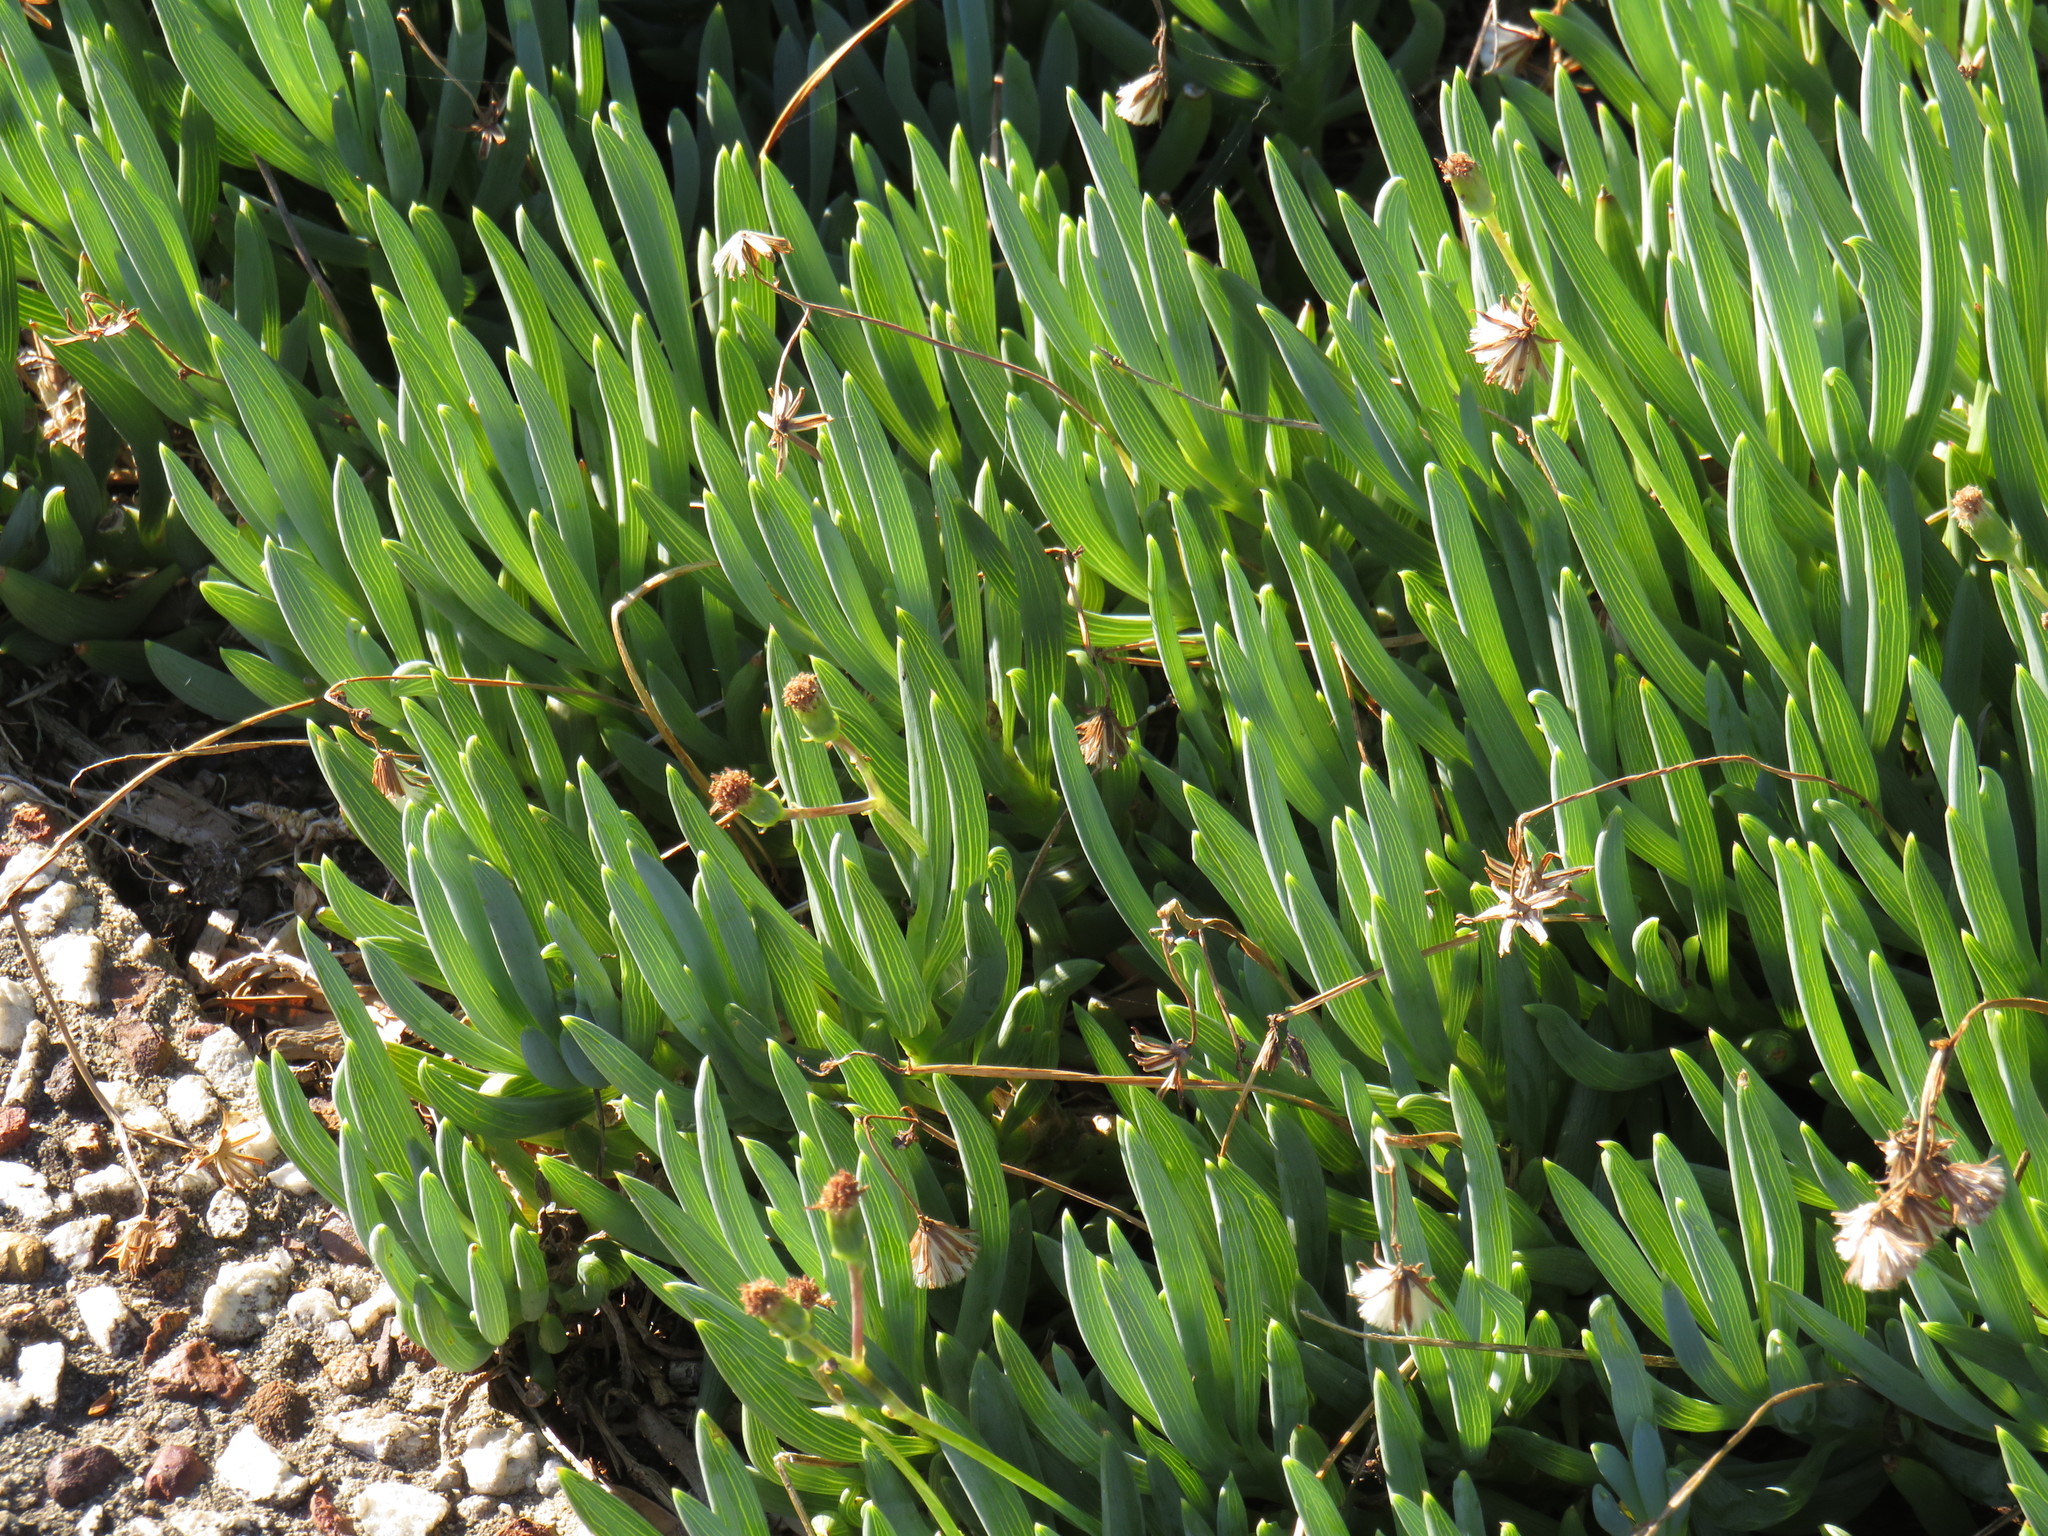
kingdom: Plantae
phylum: Tracheophyta
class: Magnoliopsida
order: Asterales
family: Asteraceae
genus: Curio
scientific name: Curio crassulifolius
